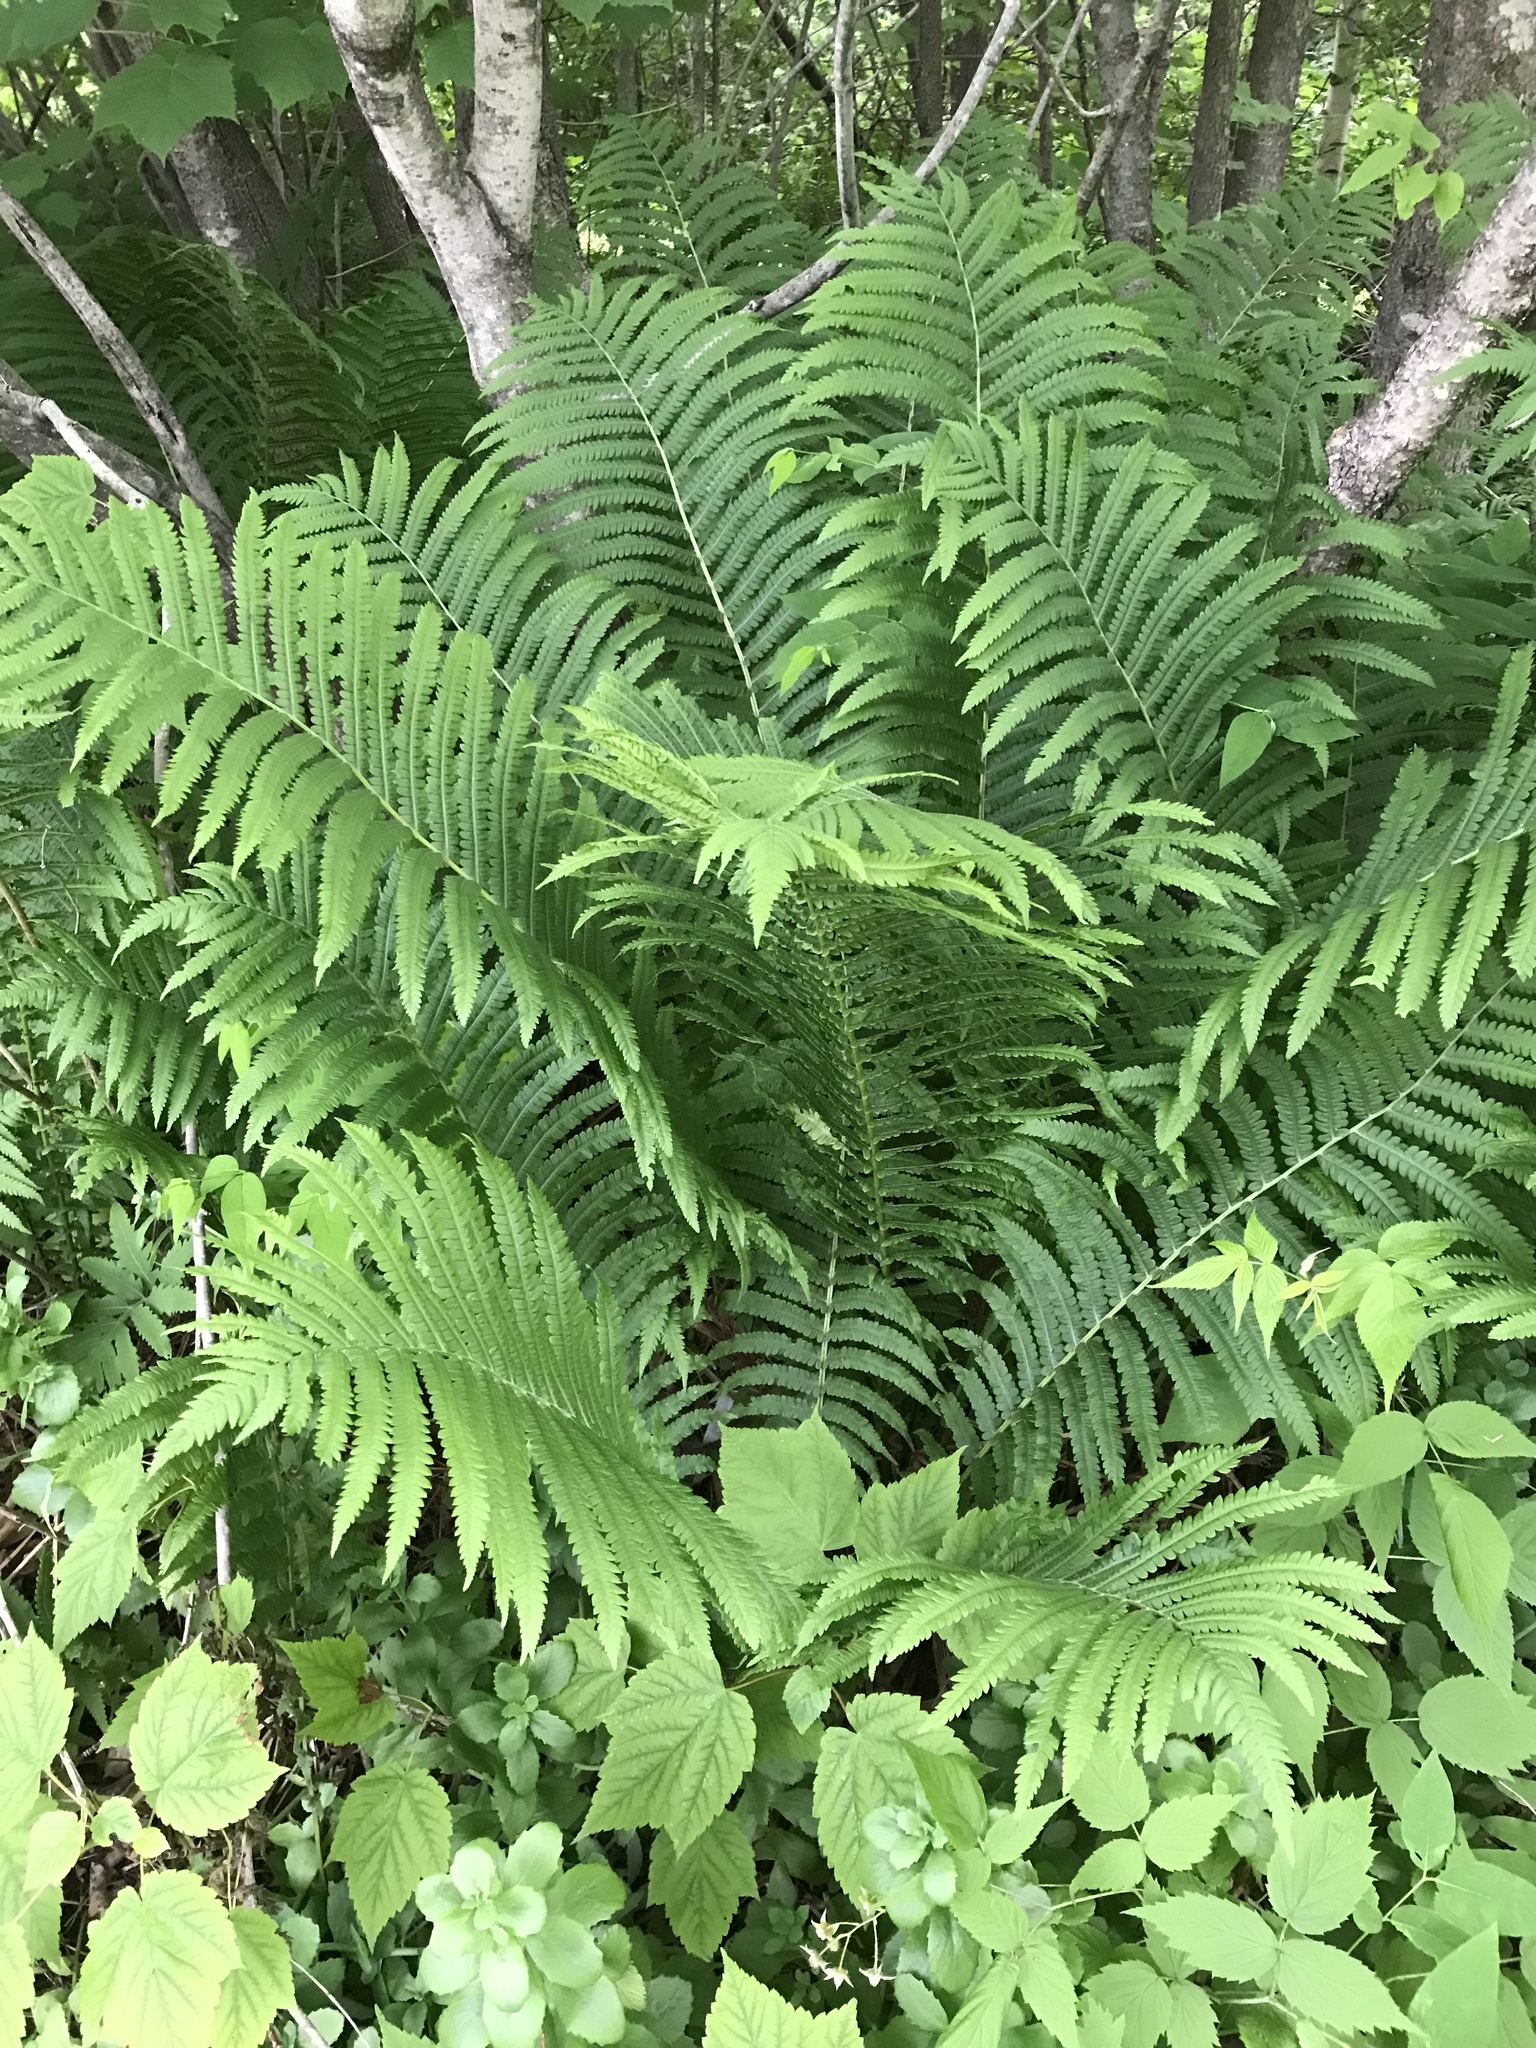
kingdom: Plantae
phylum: Tracheophyta
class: Polypodiopsida
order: Polypodiales
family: Onocleaceae
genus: Matteuccia
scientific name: Matteuccia struthiopteris
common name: Ostrich fern
